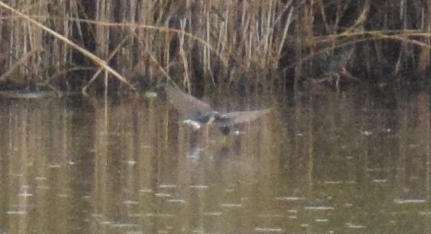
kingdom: Animalia
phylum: Chordata
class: Aves
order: Passeriformes
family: Hirundinidae
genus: Hirundo
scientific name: Hirundo rustica
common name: Barn swallow
